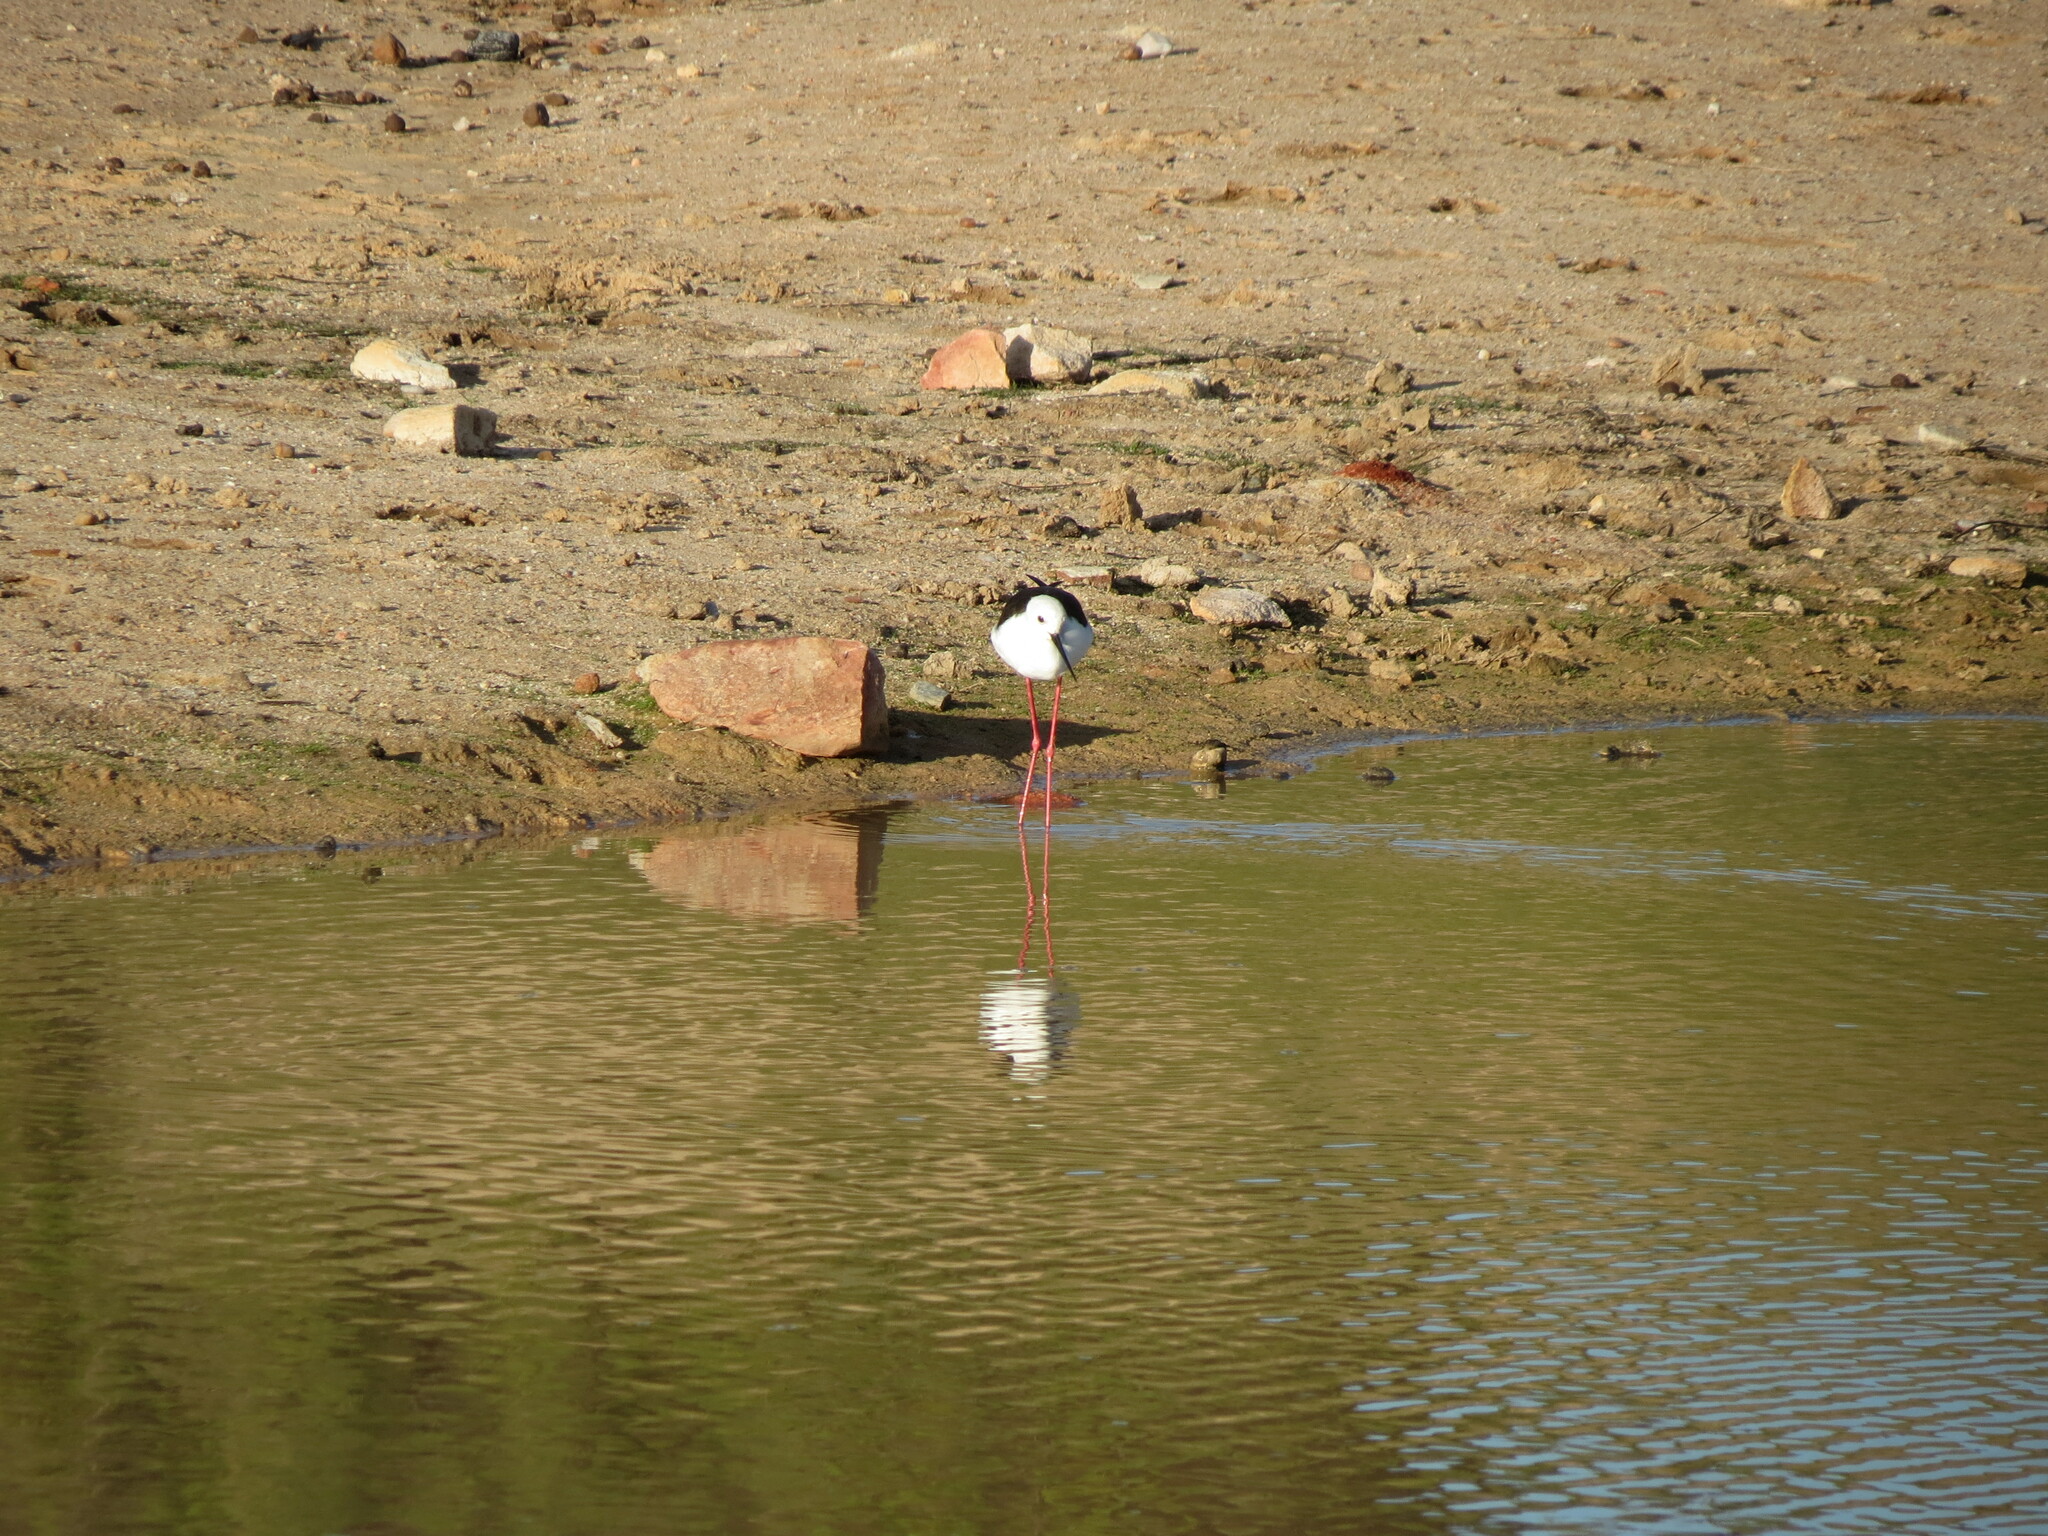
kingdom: Animalia
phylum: Chordata
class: Aves
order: Charadriiformes
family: Recurvirostridae
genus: Himantopus
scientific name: Himantopus himantopus
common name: Black-winged stilt
